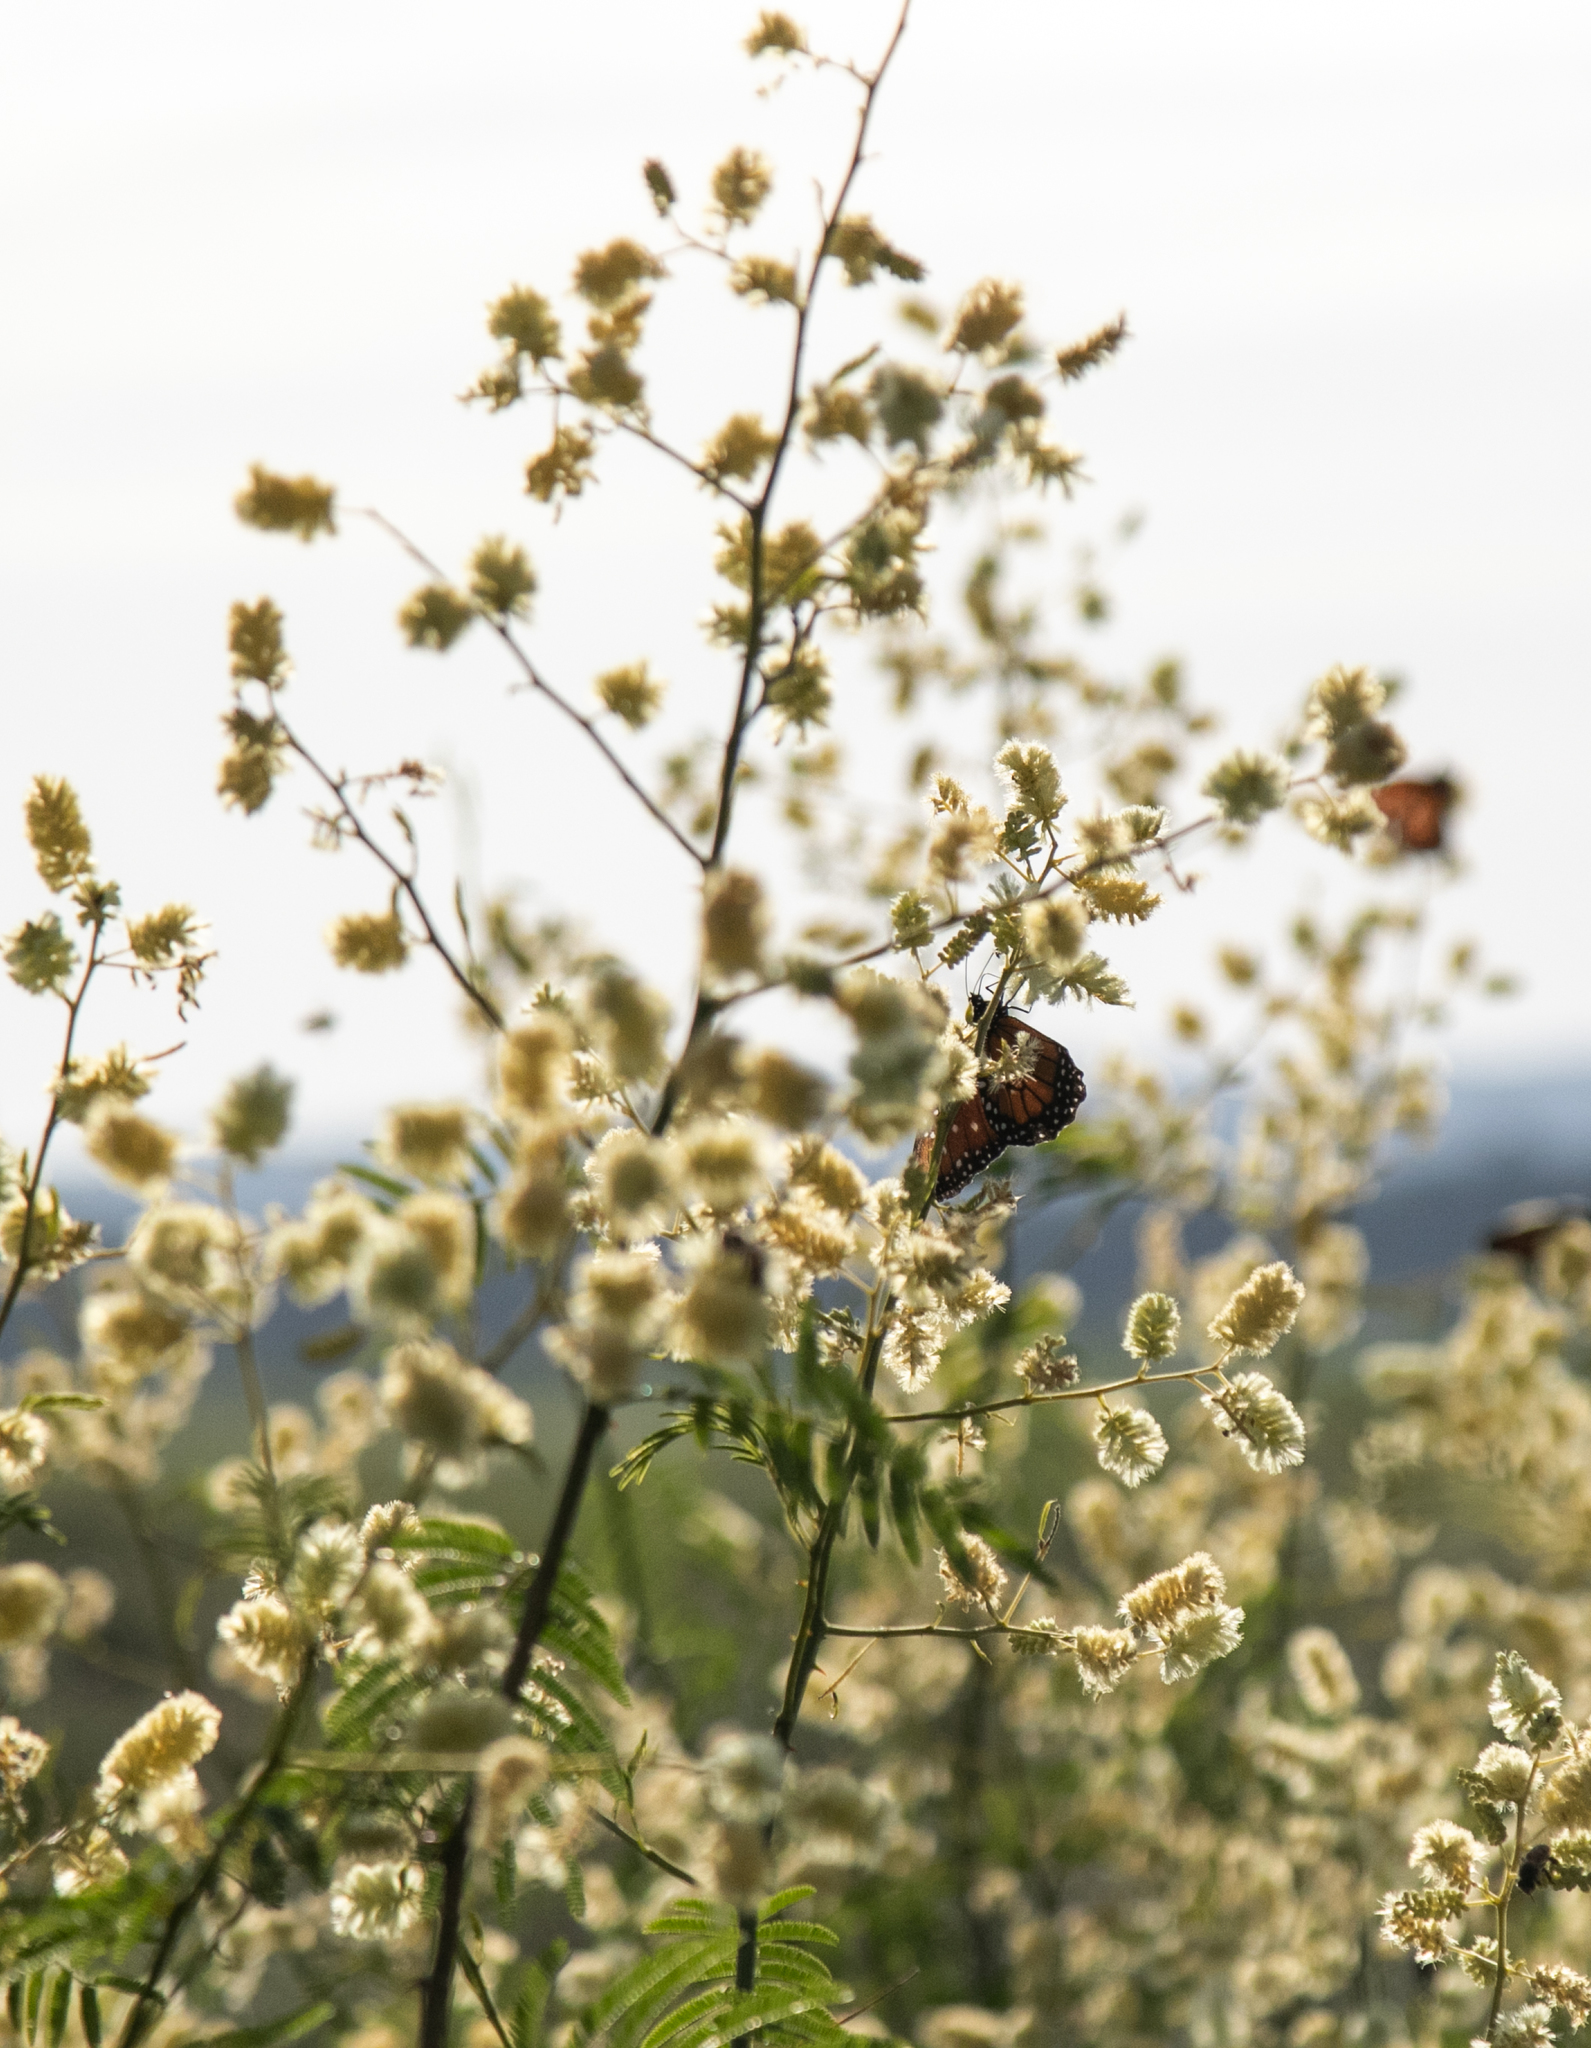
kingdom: Animalia
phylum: Arthropoda
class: Insecta
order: Lepidoptera
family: Nymphalidae
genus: Danaus
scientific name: Danaus gilippus
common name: Queen
